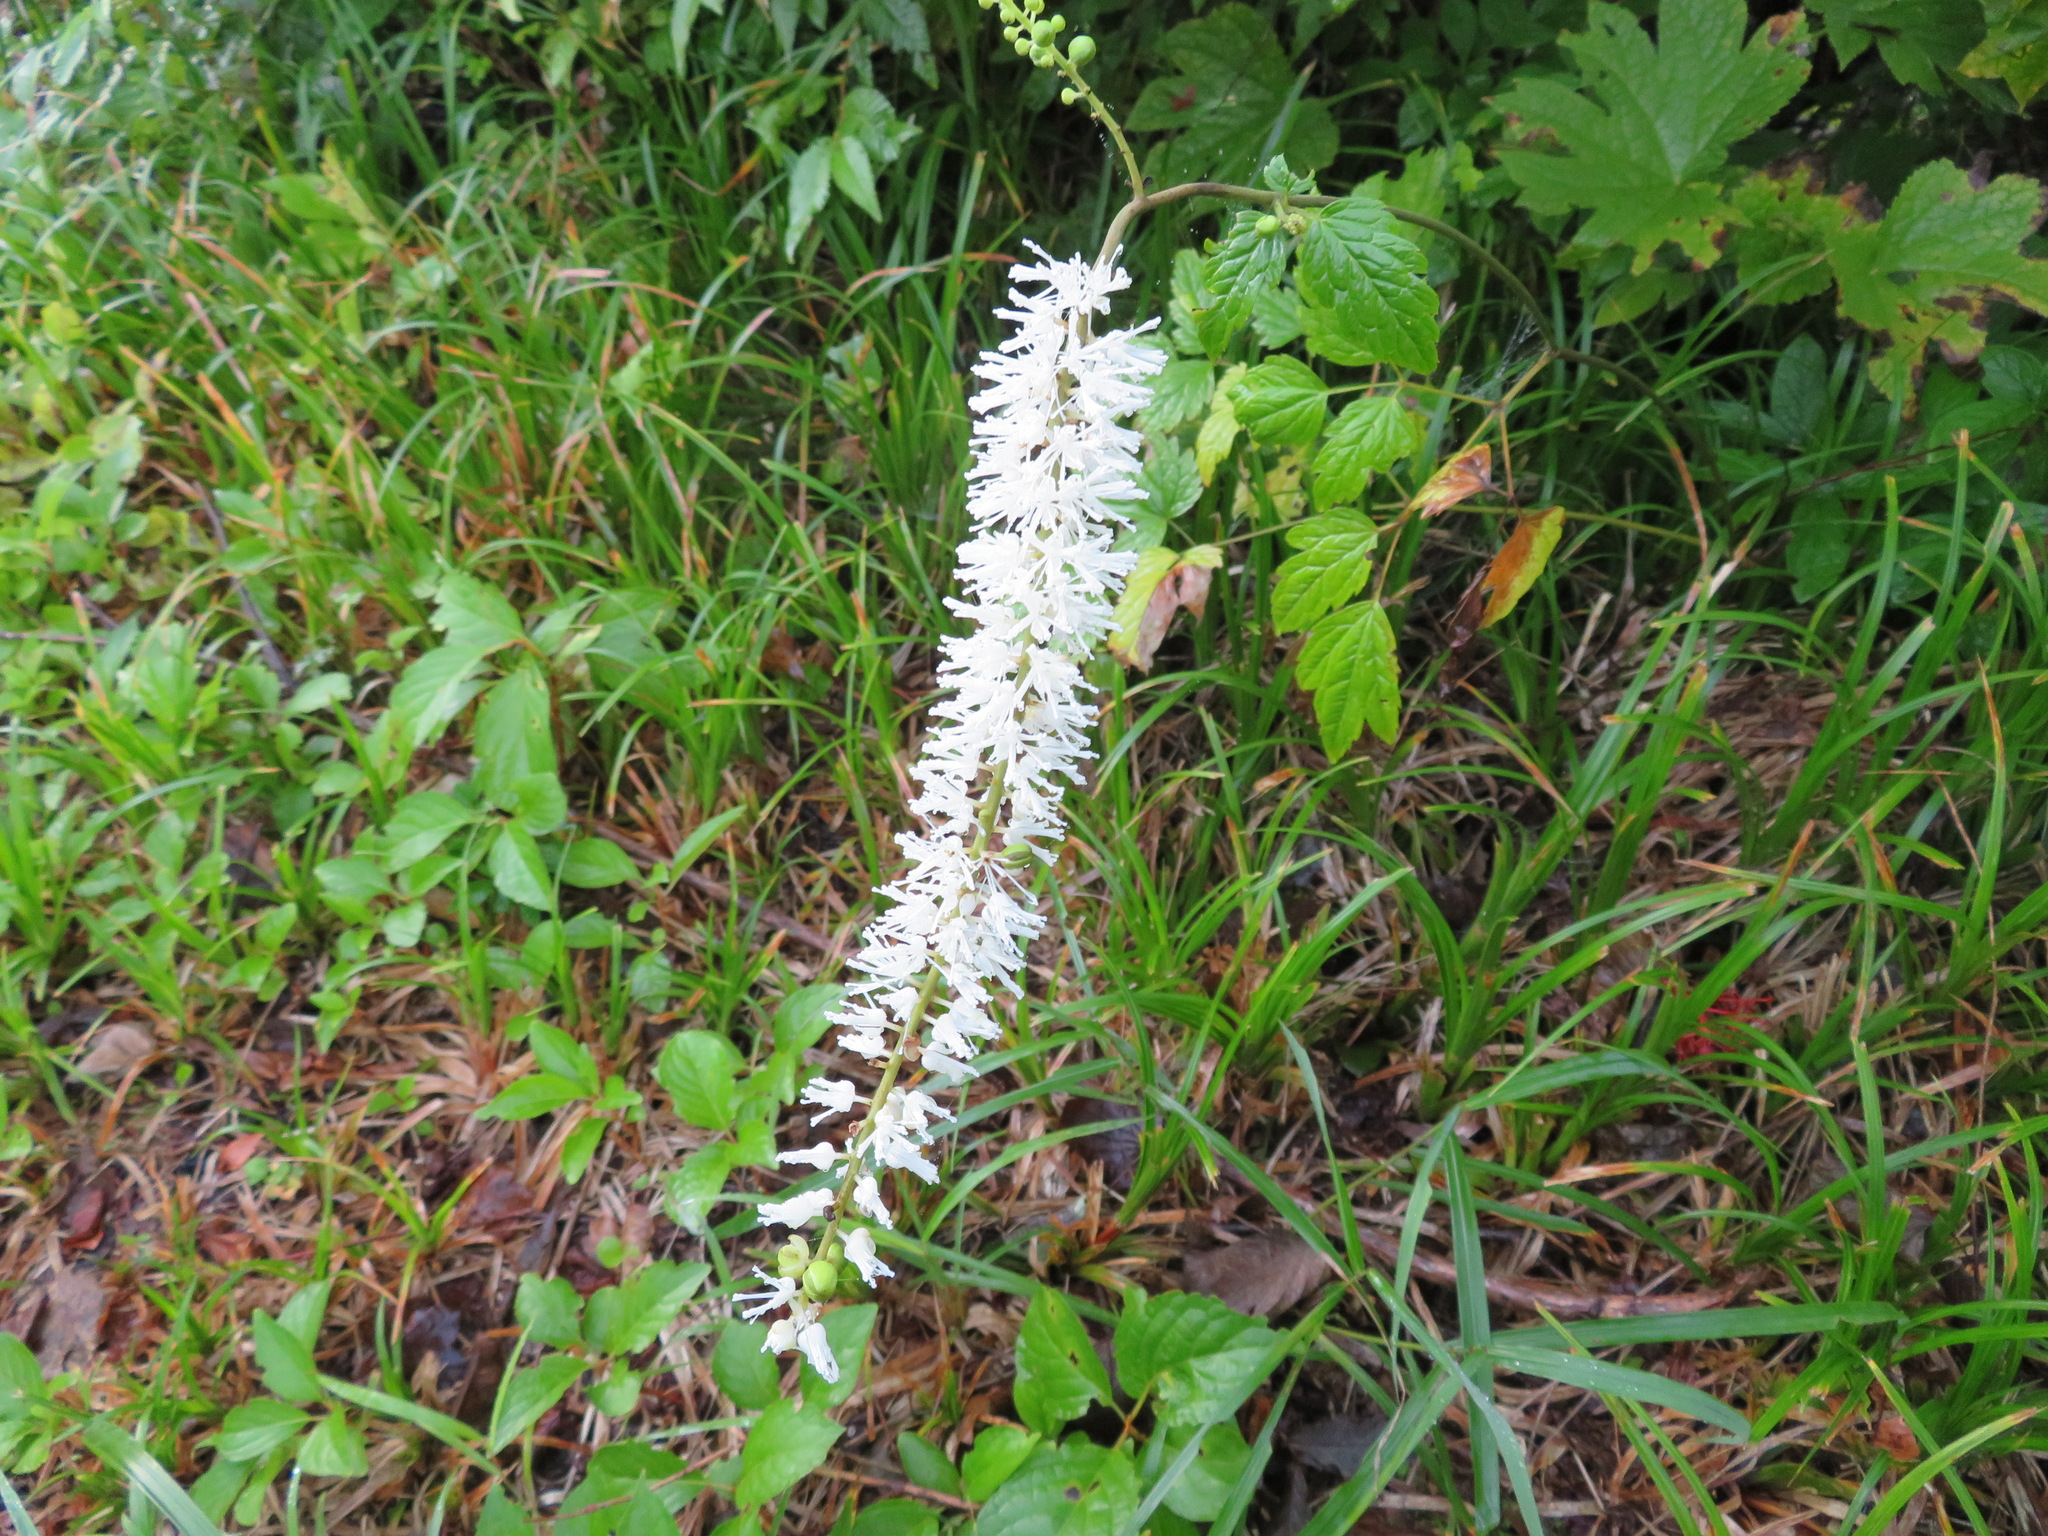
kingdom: Plantae
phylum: Tracheophyta
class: Magnoliopsida
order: Ranunculales
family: Ranunculaceae
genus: Actaea
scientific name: Actaea simplex
